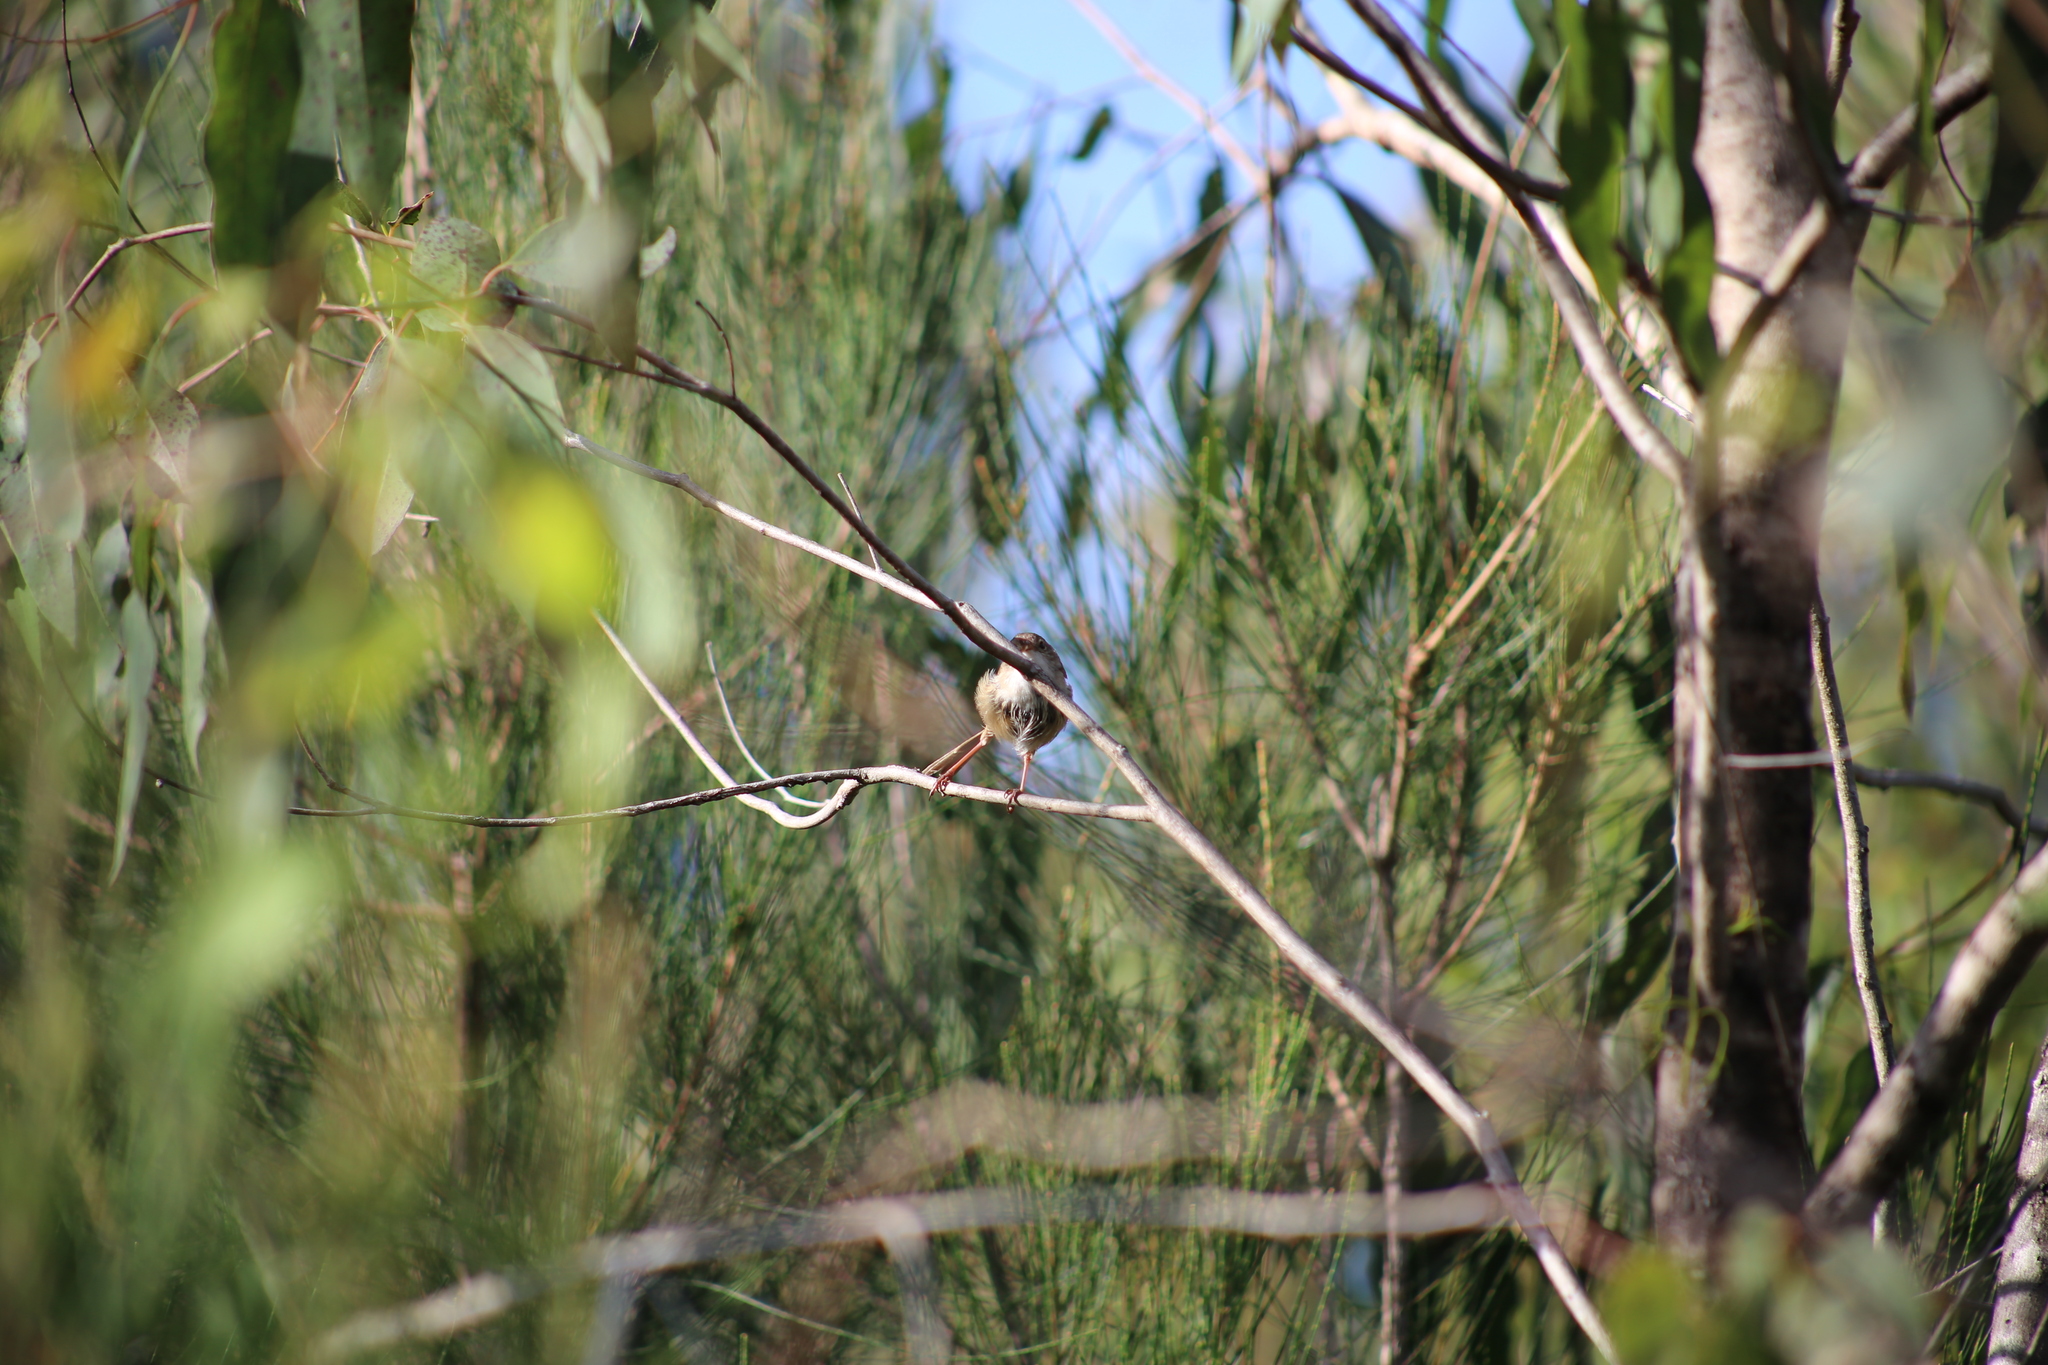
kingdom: Animalia
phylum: Chordata
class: Aves
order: Passeriformes
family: Maluridae
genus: Malurus
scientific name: Malurus melanocephalus
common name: Red-backed fairywren
